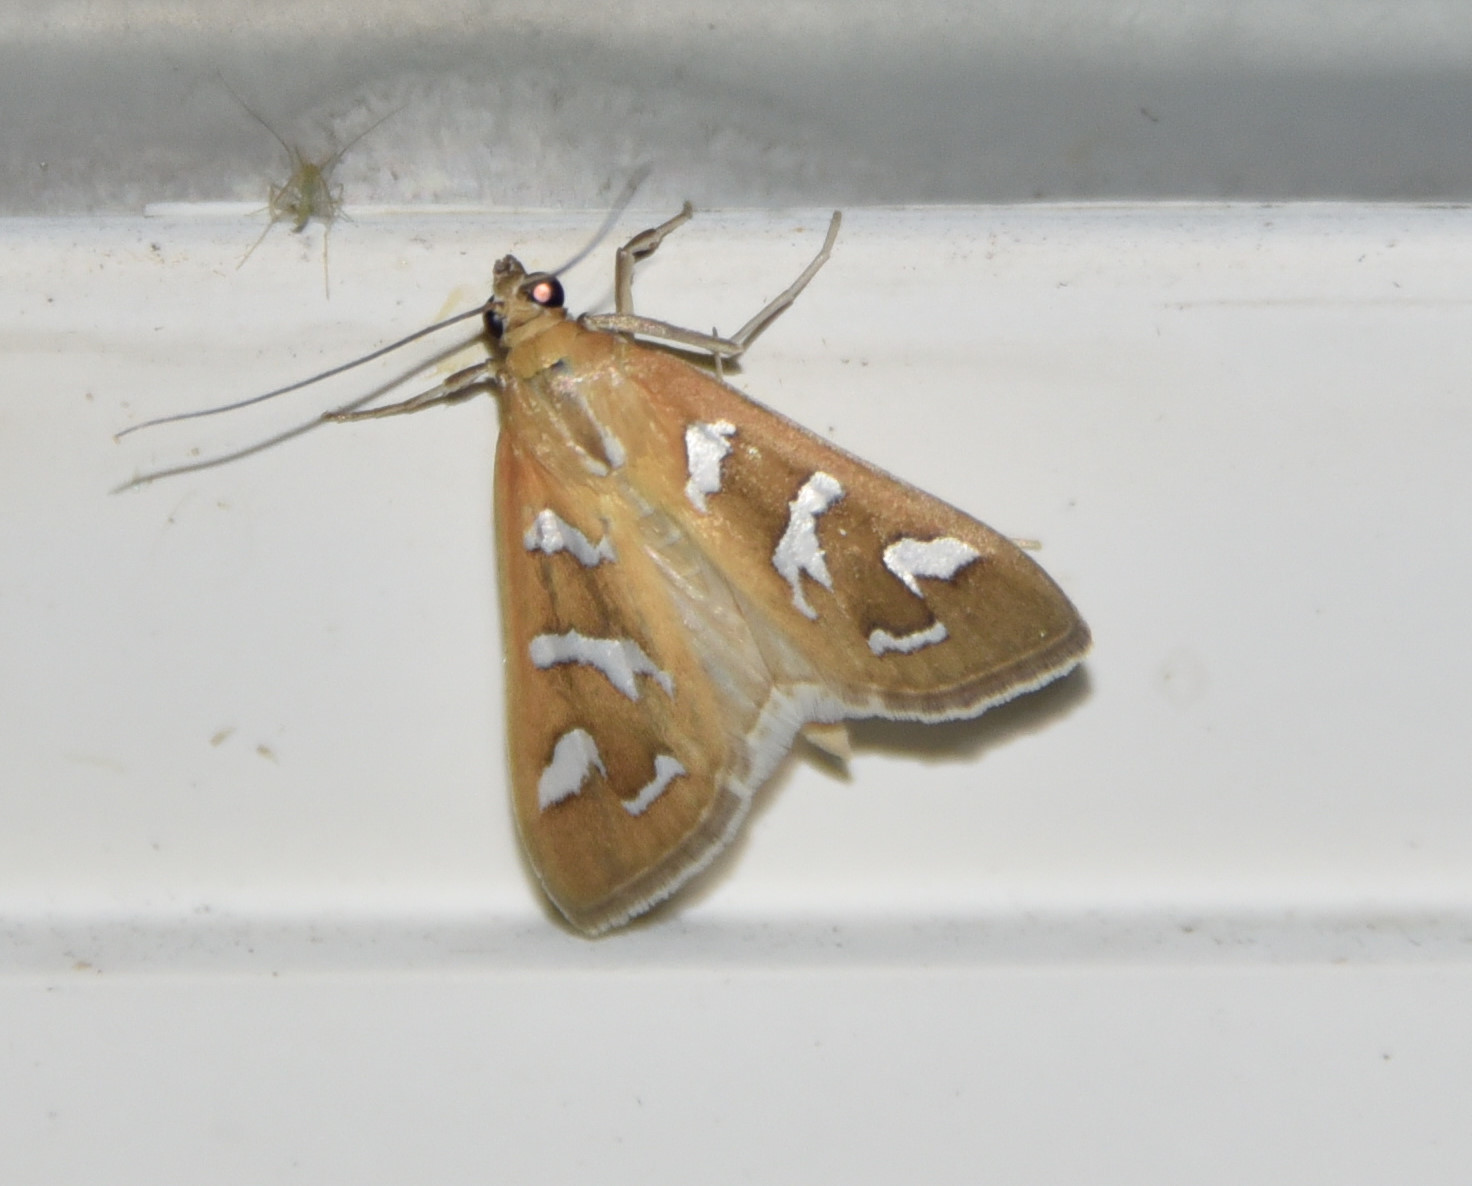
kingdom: Animalia
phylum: Arthropoda
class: Insecta
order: Lepidoptera
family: Crambidae
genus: Diastictis
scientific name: Diastictis fracturalis
